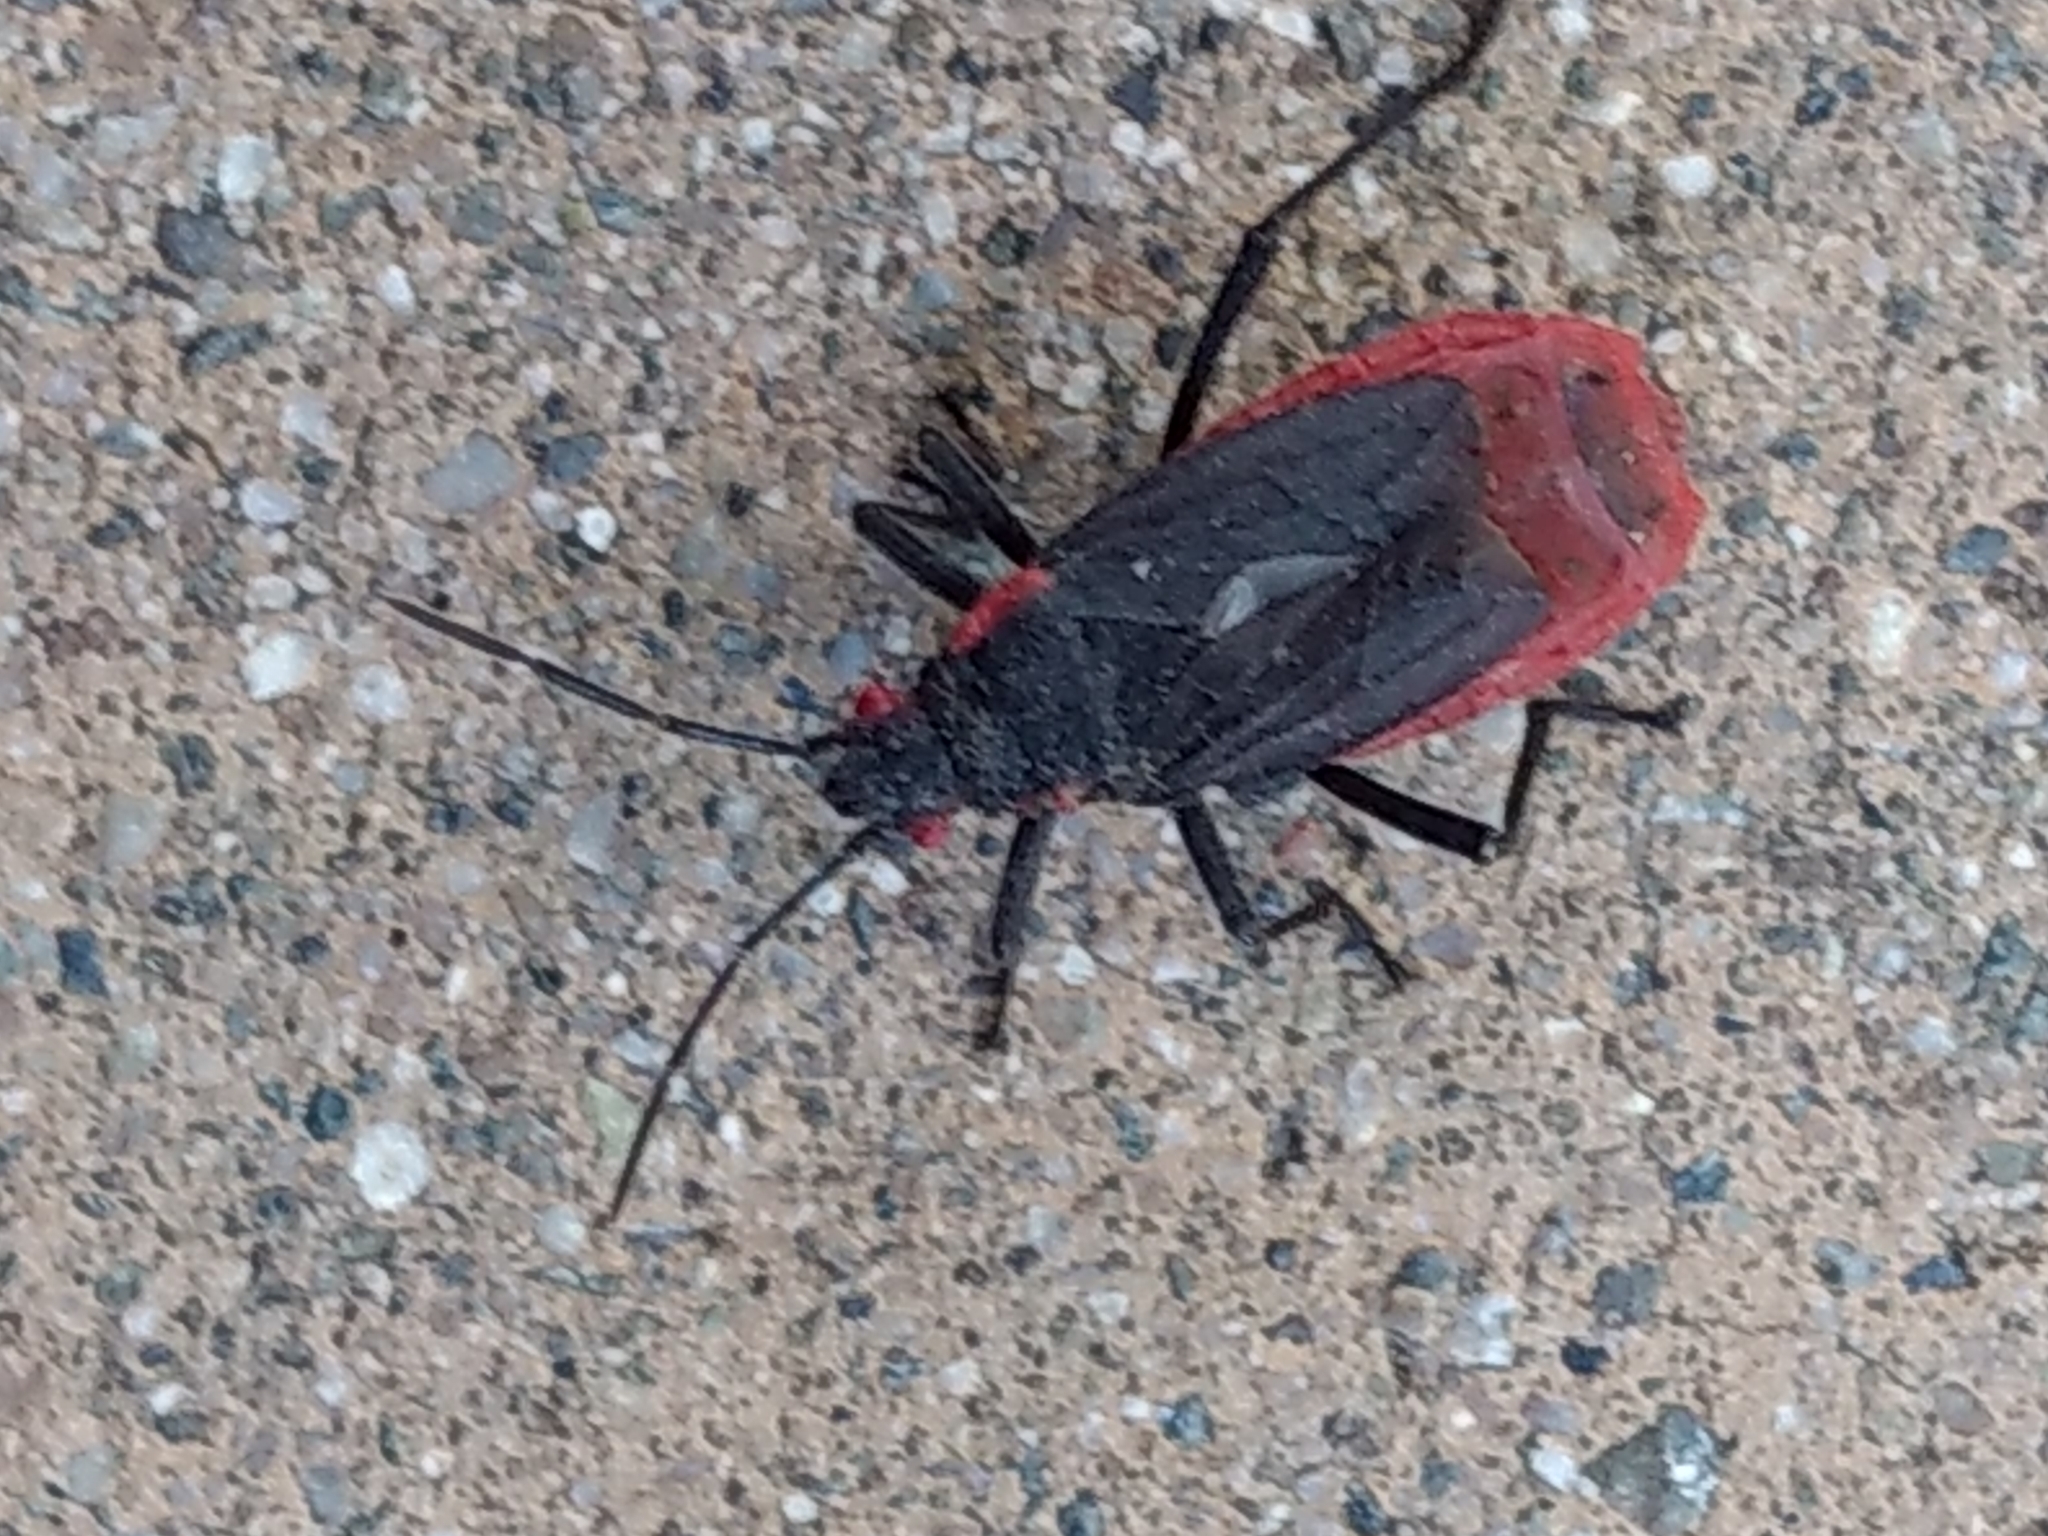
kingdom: Animalia
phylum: Arthropoda
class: Insecta
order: Hemiptera
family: Rhopalidae
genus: Jadera
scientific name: Jadera haematoloma
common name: Red-shouldered bug
